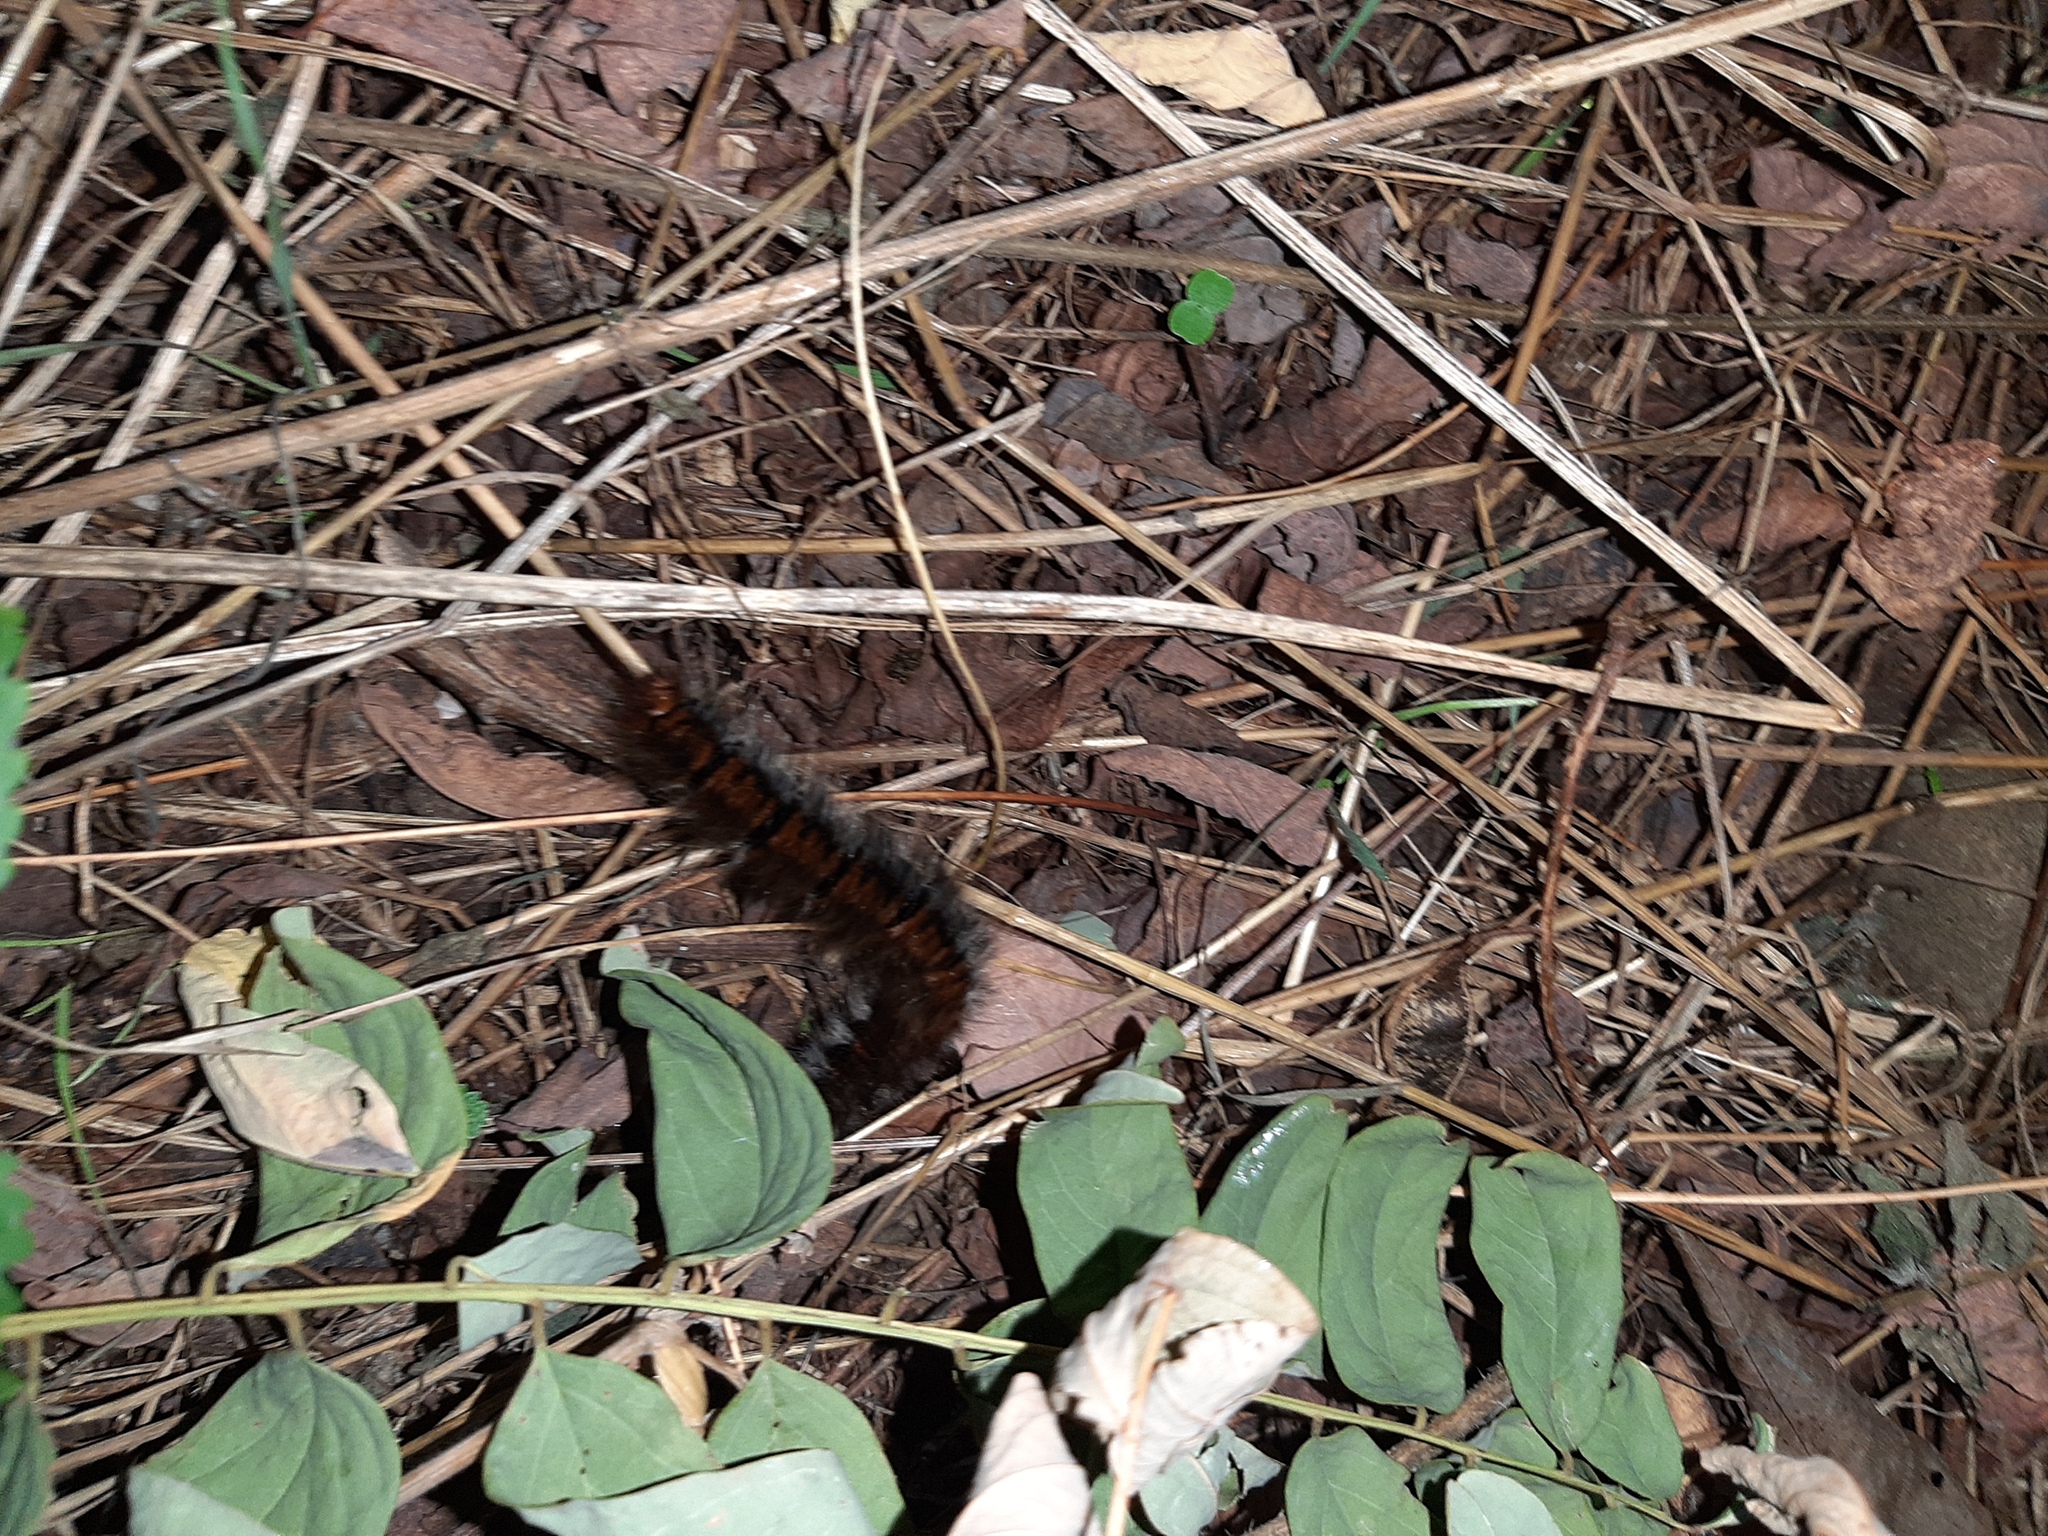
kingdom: Animalia
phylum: Arthropoda
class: Insecta
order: Lepidoptera
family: Lasiocampidae
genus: Macrothylacia
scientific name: Macrothylacia rubi
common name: Fox moth
